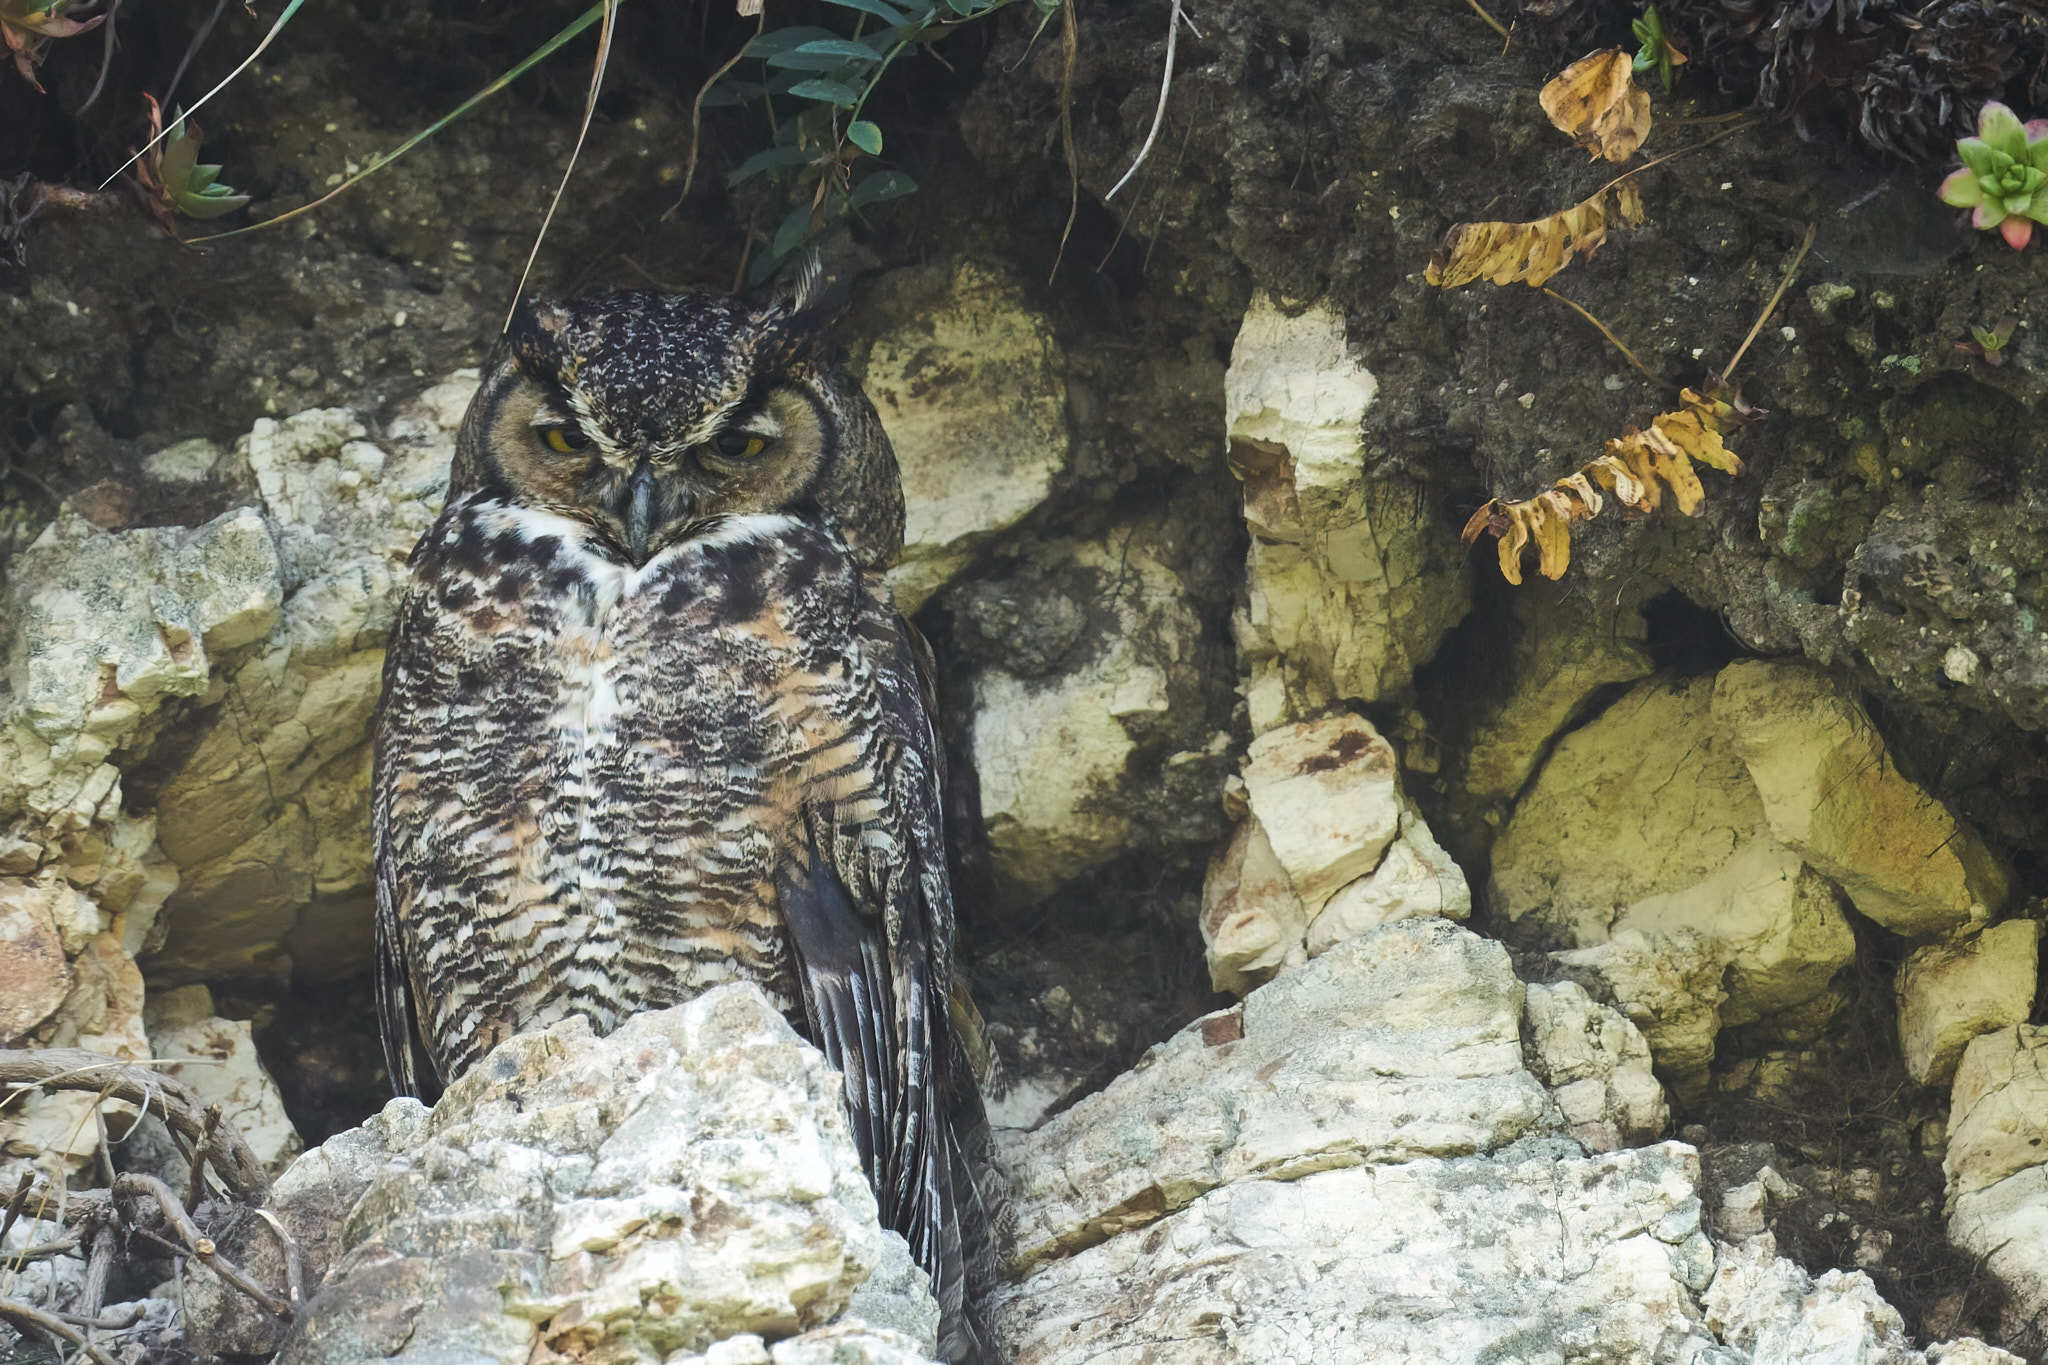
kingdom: Animalia
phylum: Chordata
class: Aves
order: Strigiformes
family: Strigidae
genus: Bubo
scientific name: Bubo virginianus
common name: Great horned owl
